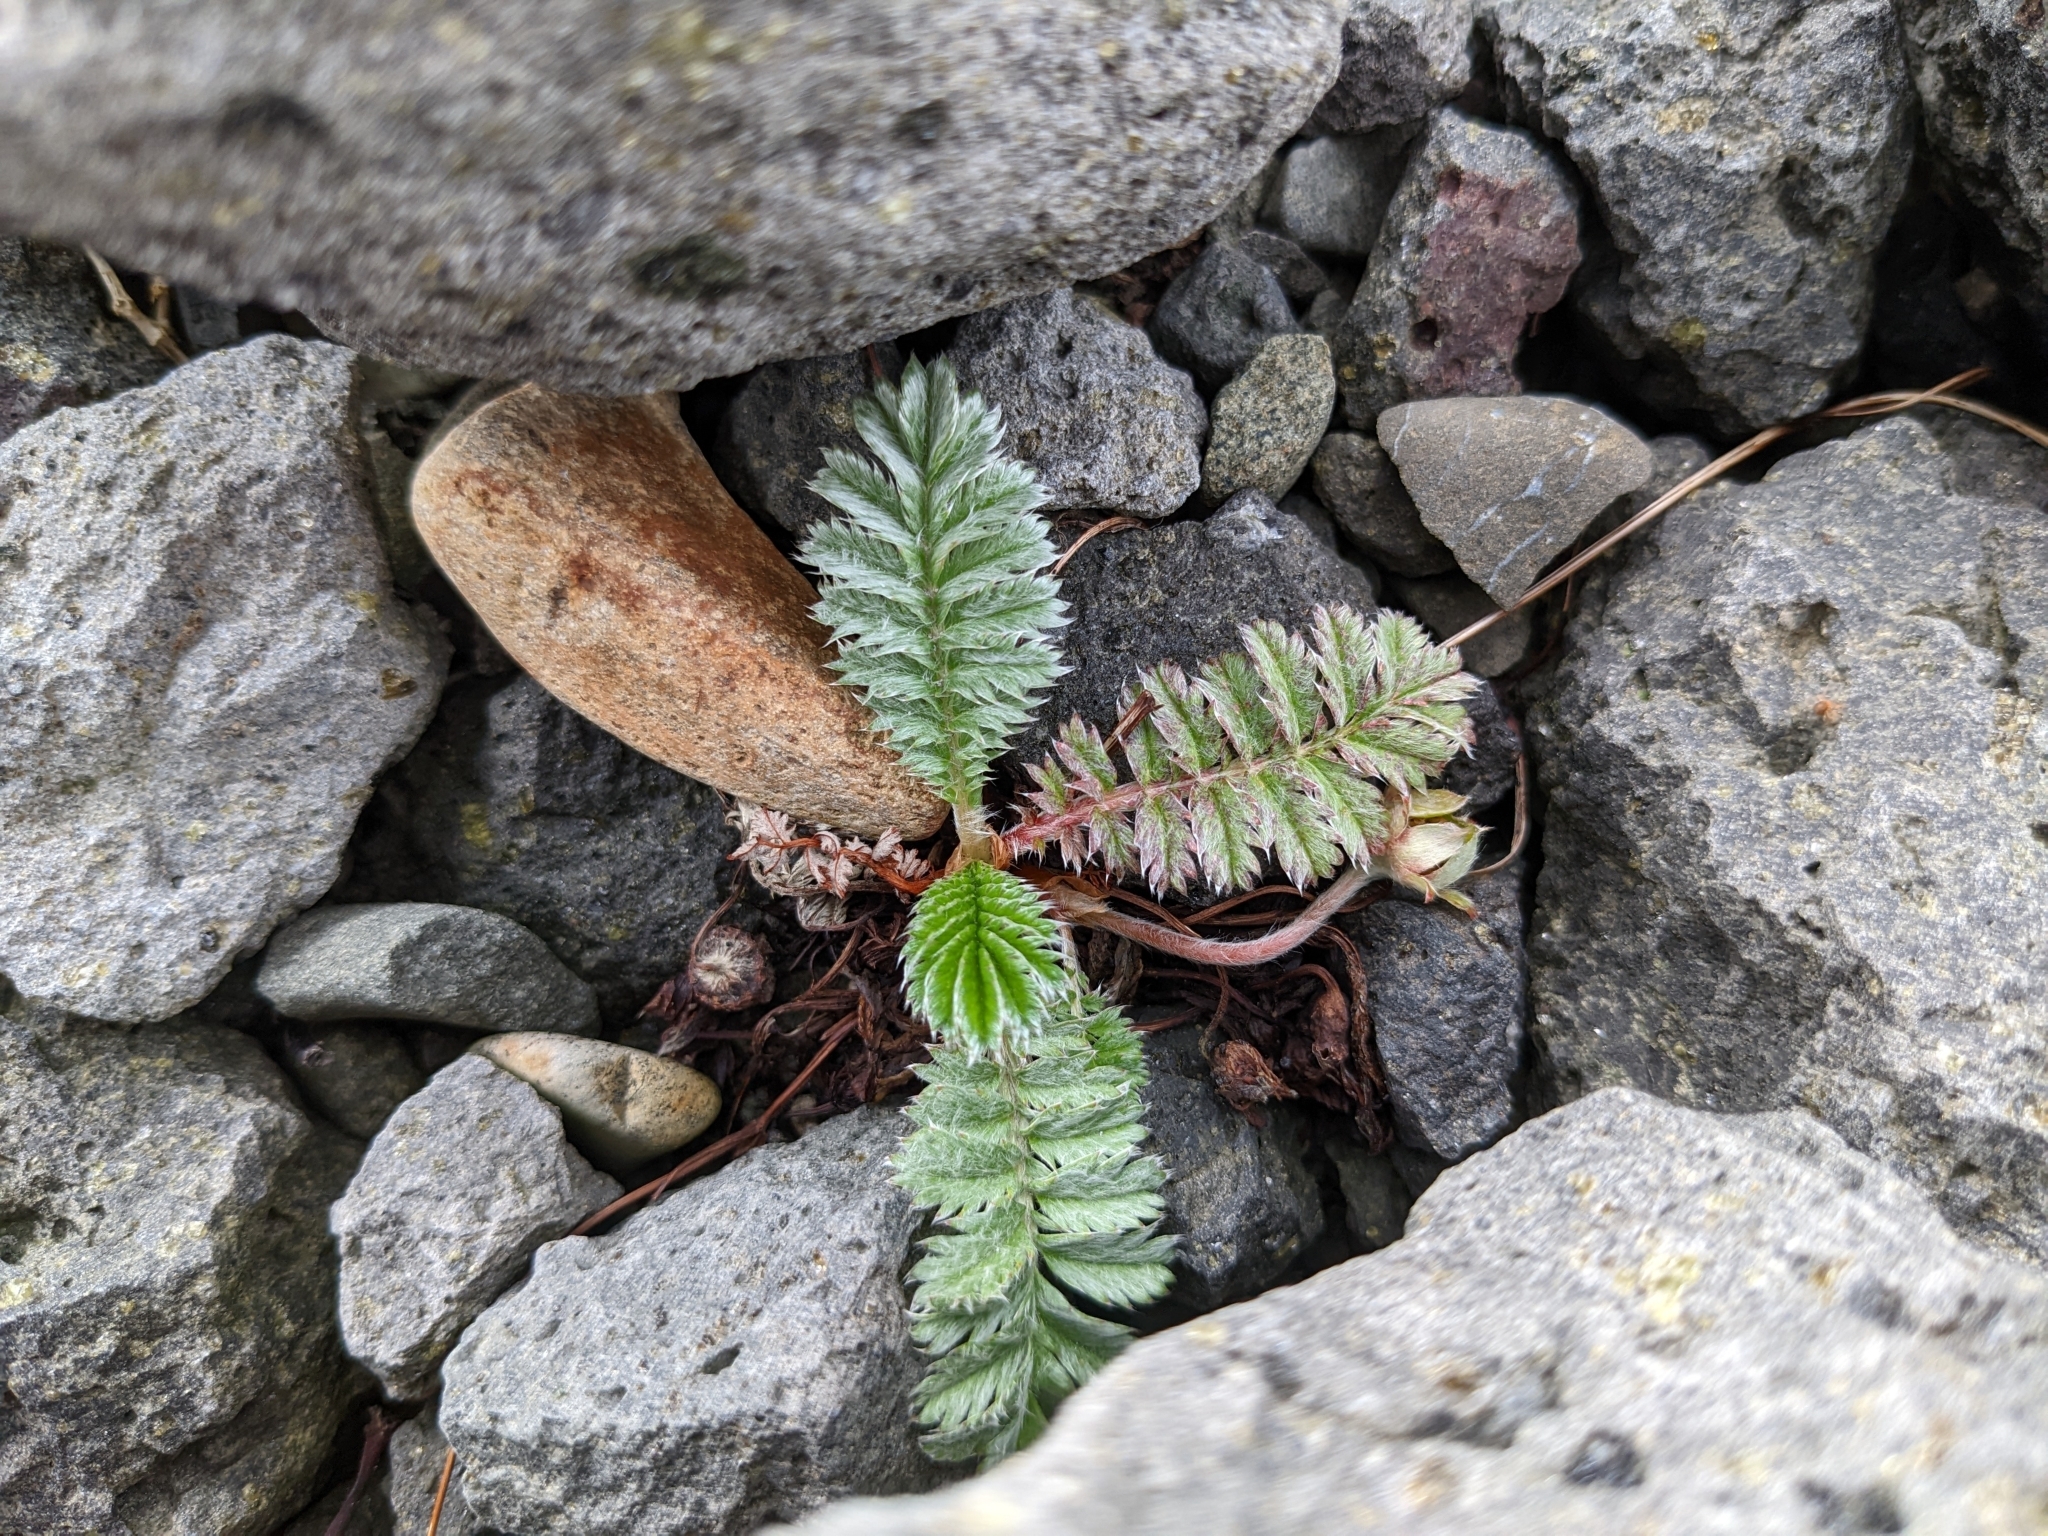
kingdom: Plantae
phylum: Tracheophyta
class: Magnoliopsida
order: Rosales
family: Rosaceae
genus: Argentina
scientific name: Argentina anserina
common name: Common silverweed
